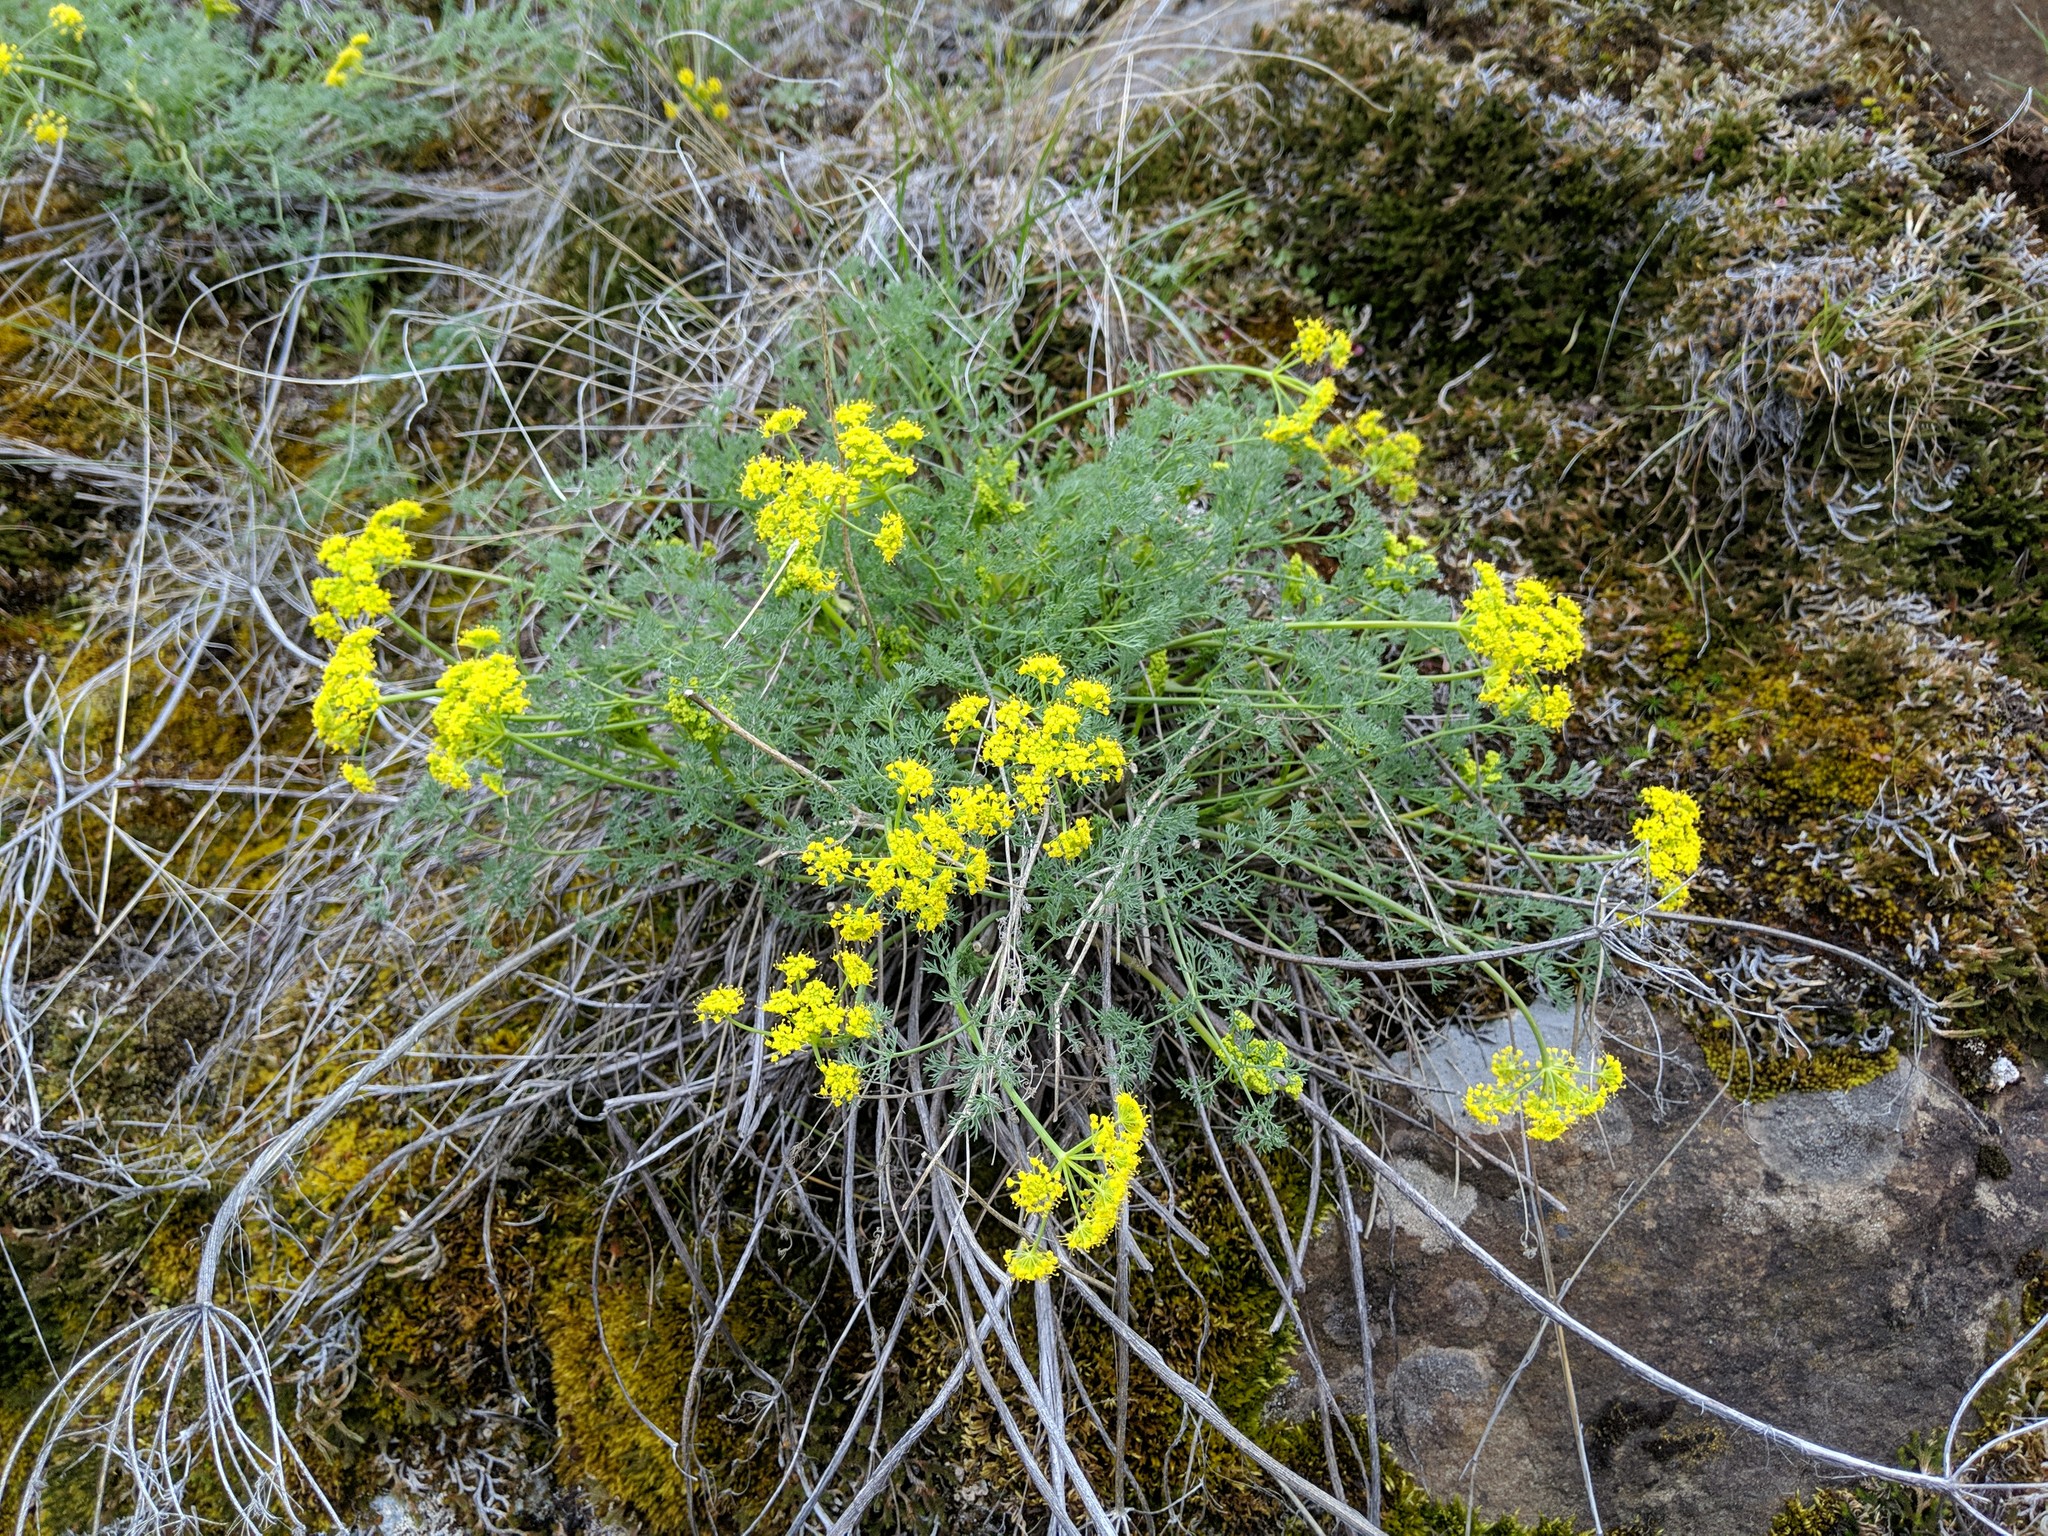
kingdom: Plantae
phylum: Tracheophyta
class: Magnoliopsida
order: Apiales
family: Apiaceae
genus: Lomatium
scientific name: Lomatium papilioniferum
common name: Butterfly lomatium
